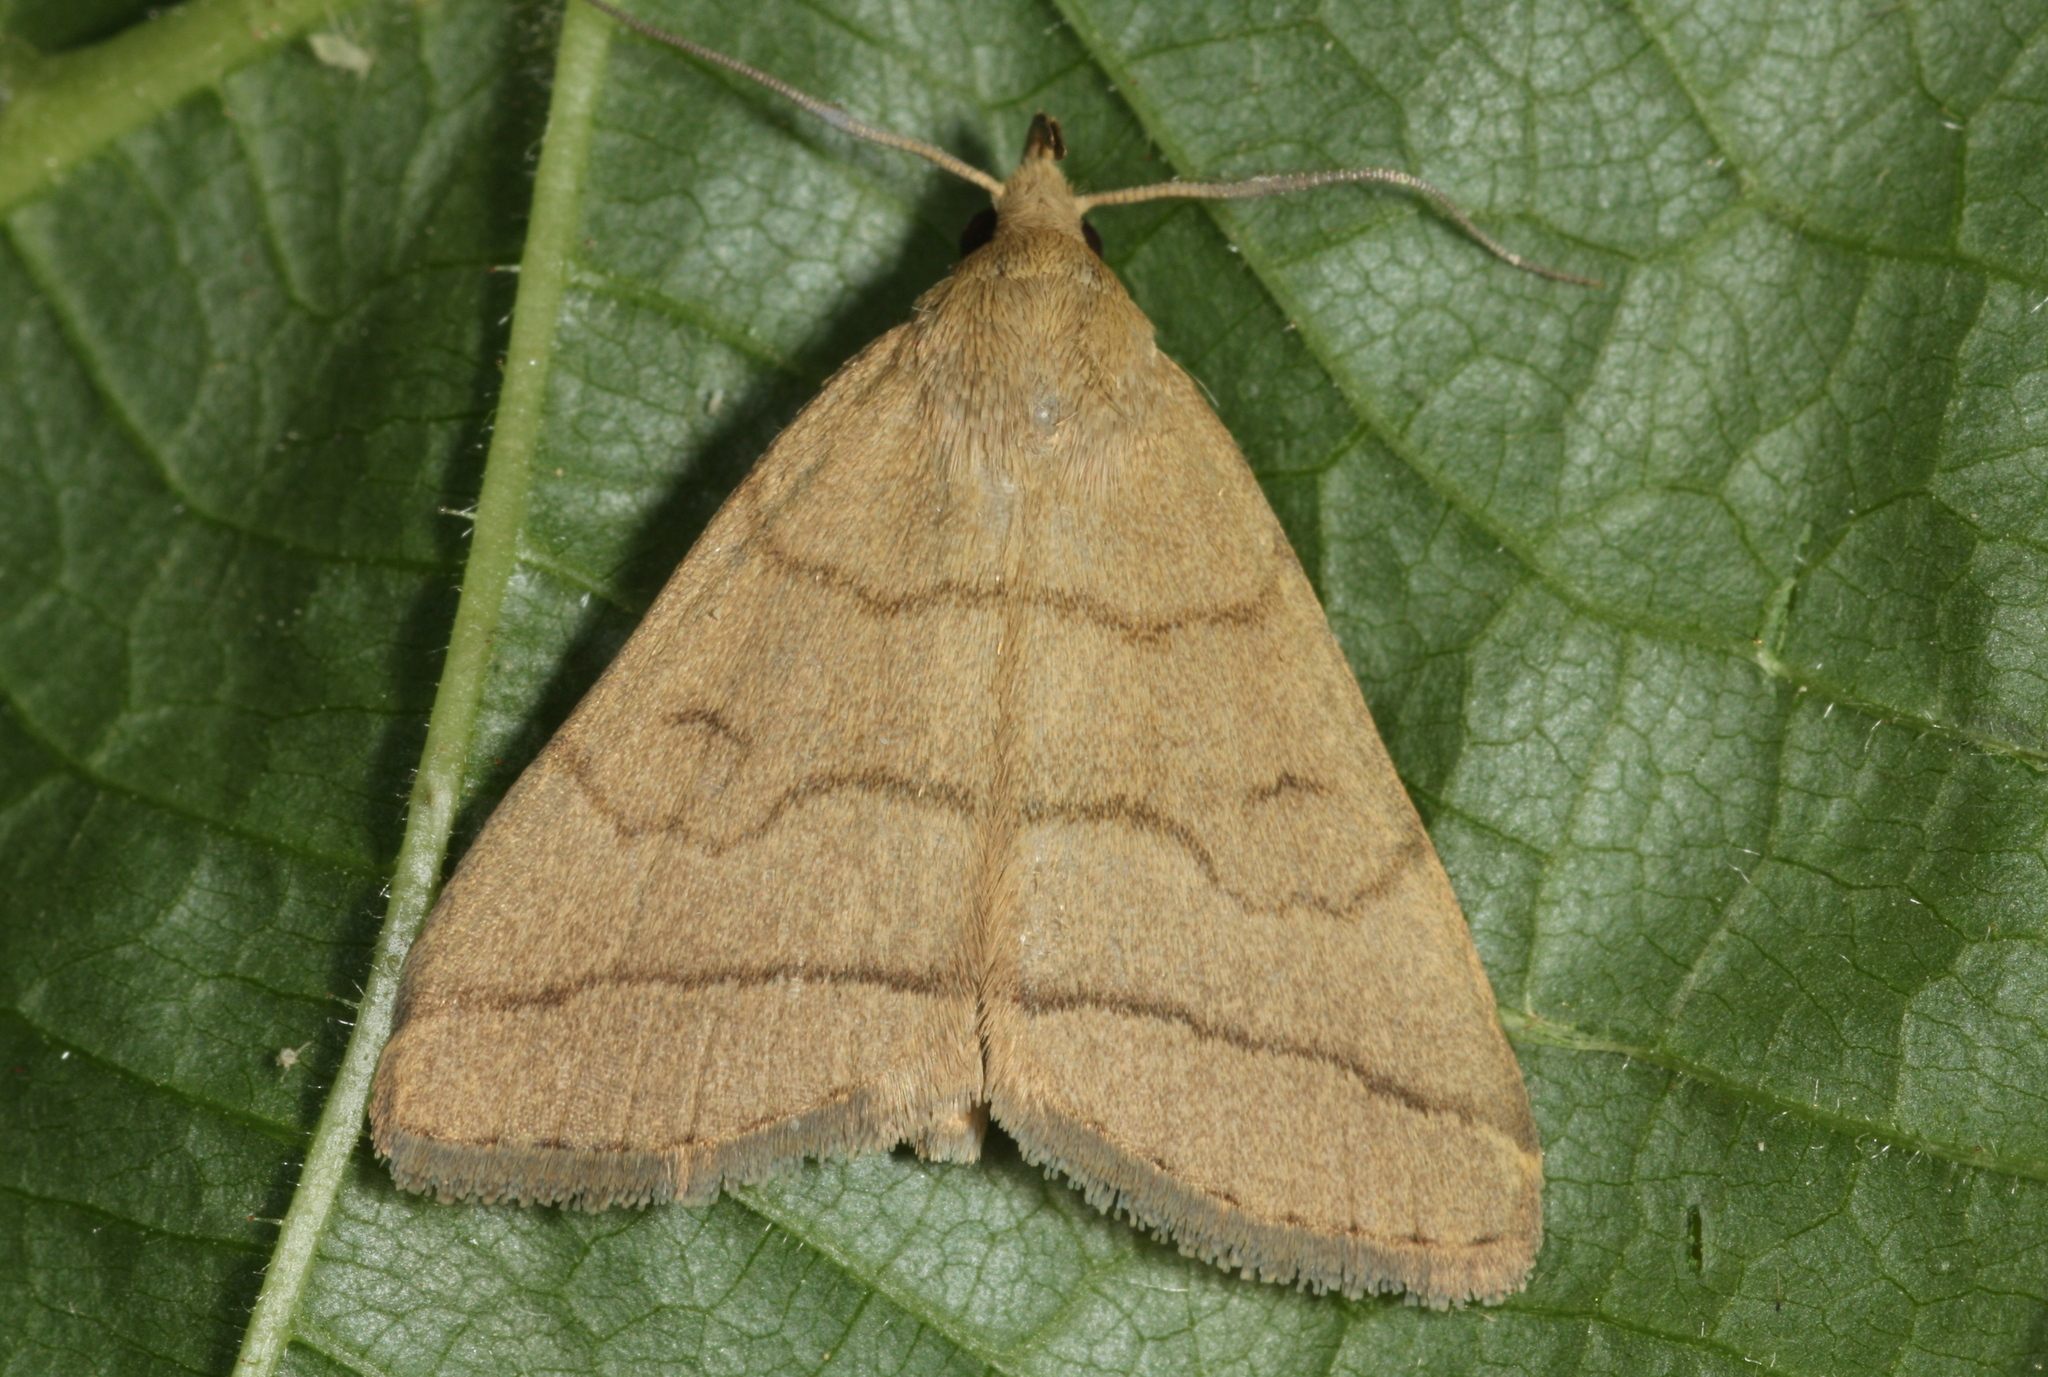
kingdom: Animalia
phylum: Arthropoda
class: Insecta
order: Lepidoptera
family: Erebidae
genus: Herminia
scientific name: Herminia tarsipennalis
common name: Fan-foot
